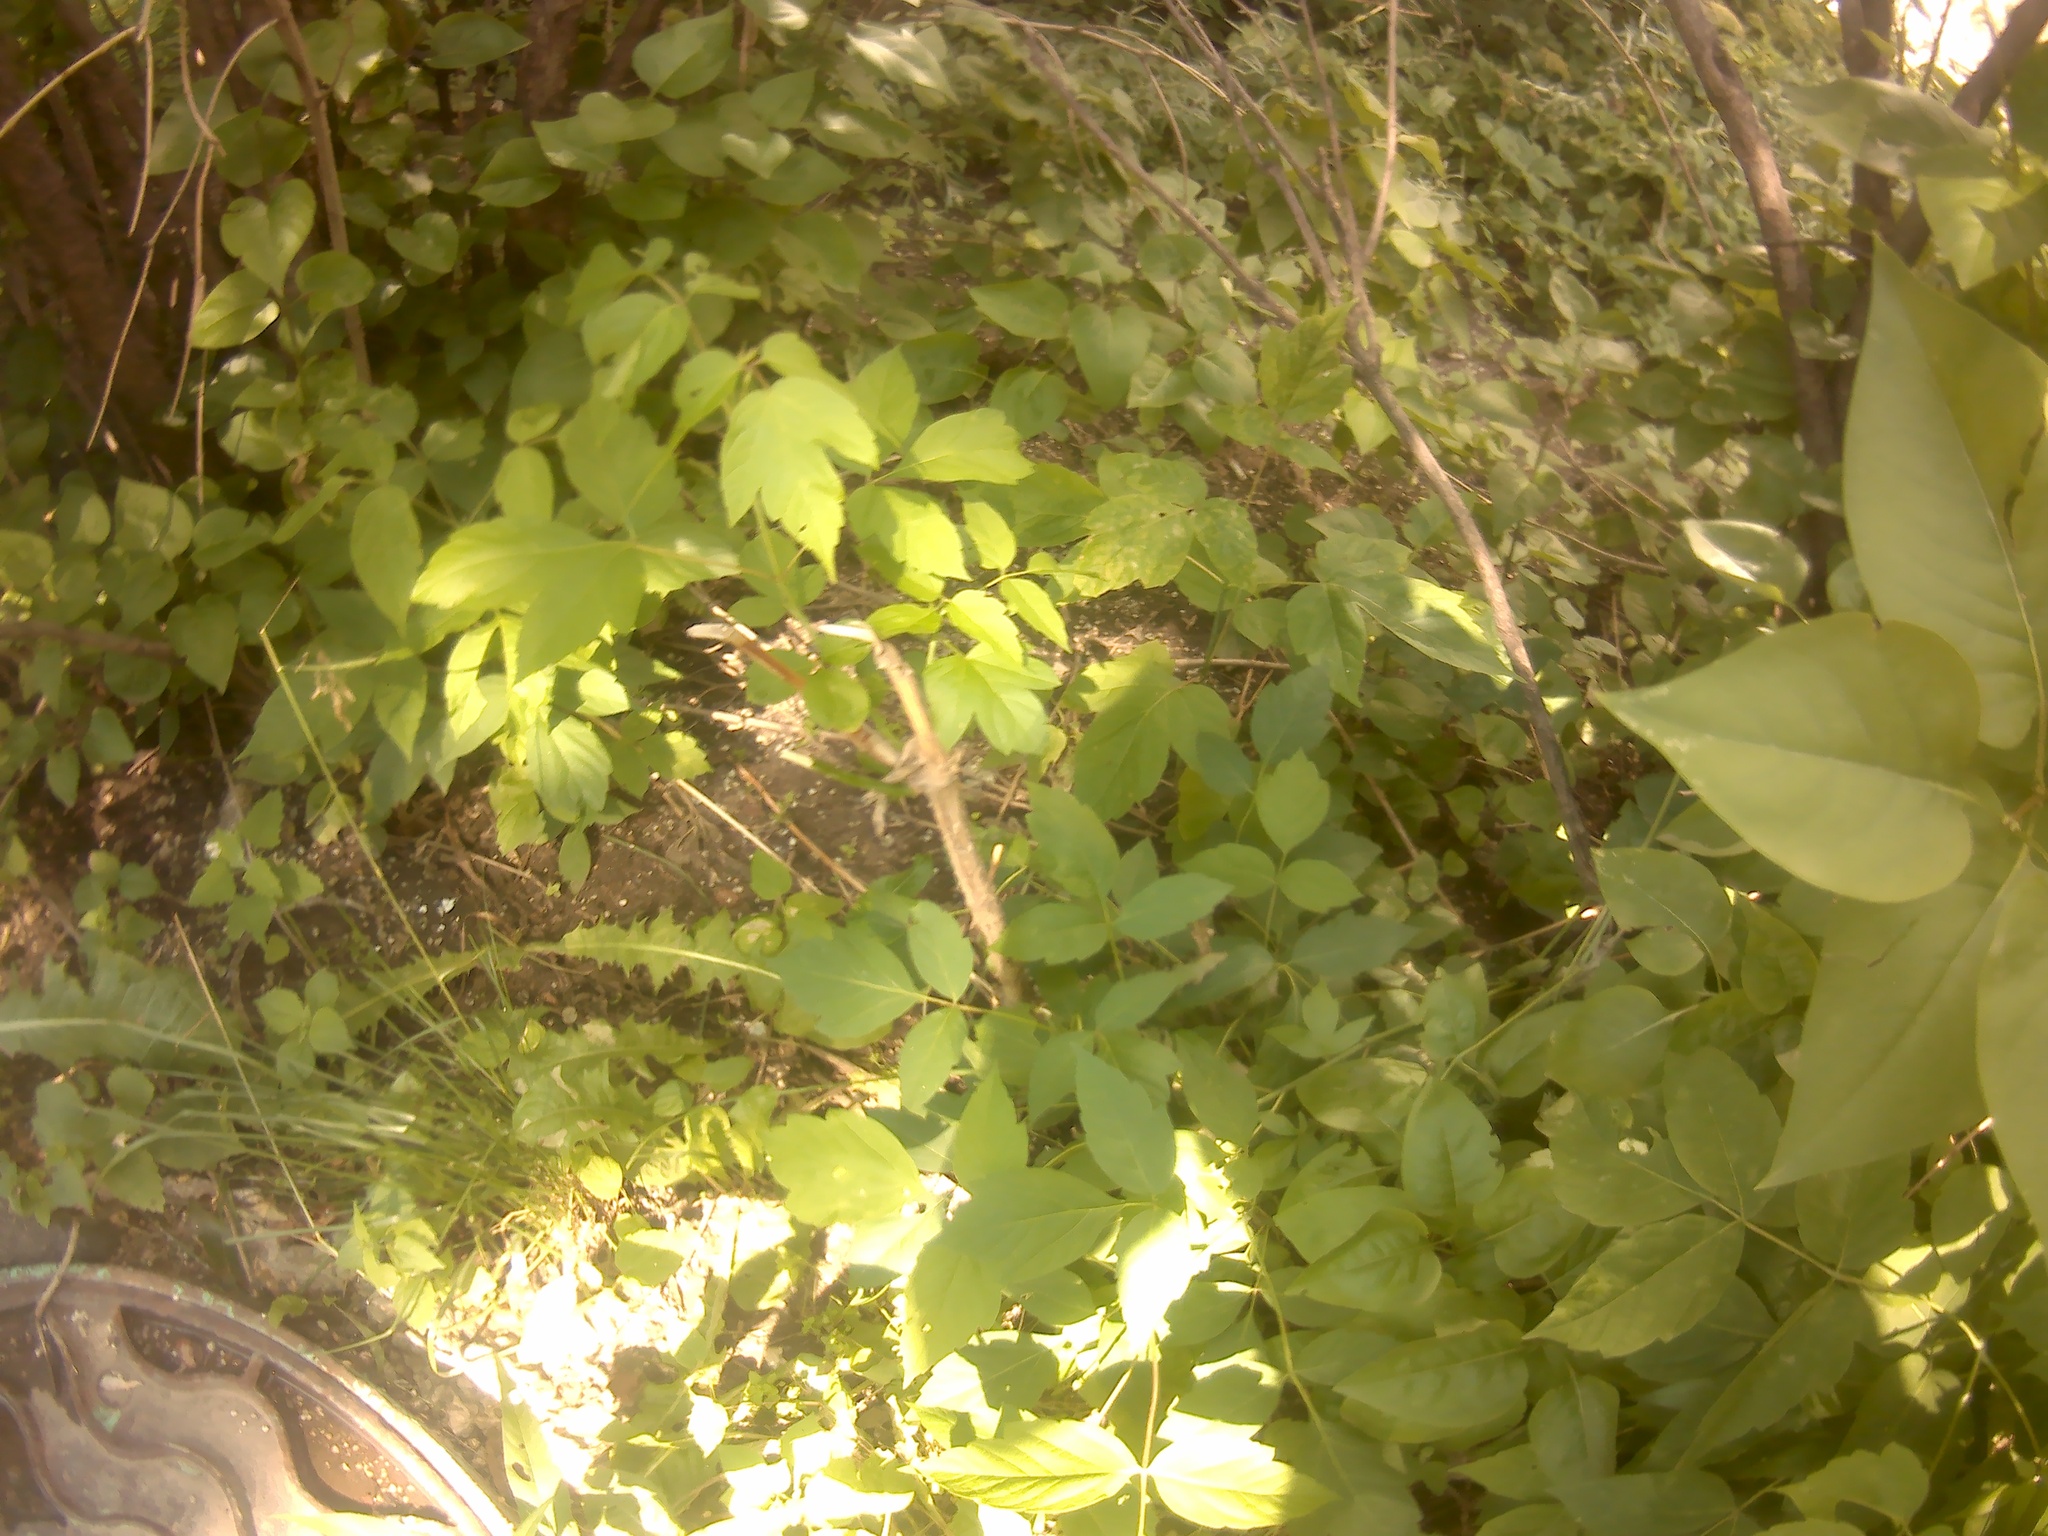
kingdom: Plantae
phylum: Tracheophyta
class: Magnoliopsida
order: Sapindales
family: Sapindaceae
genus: Acer
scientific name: Acer negundo
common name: Ashleaf maple
